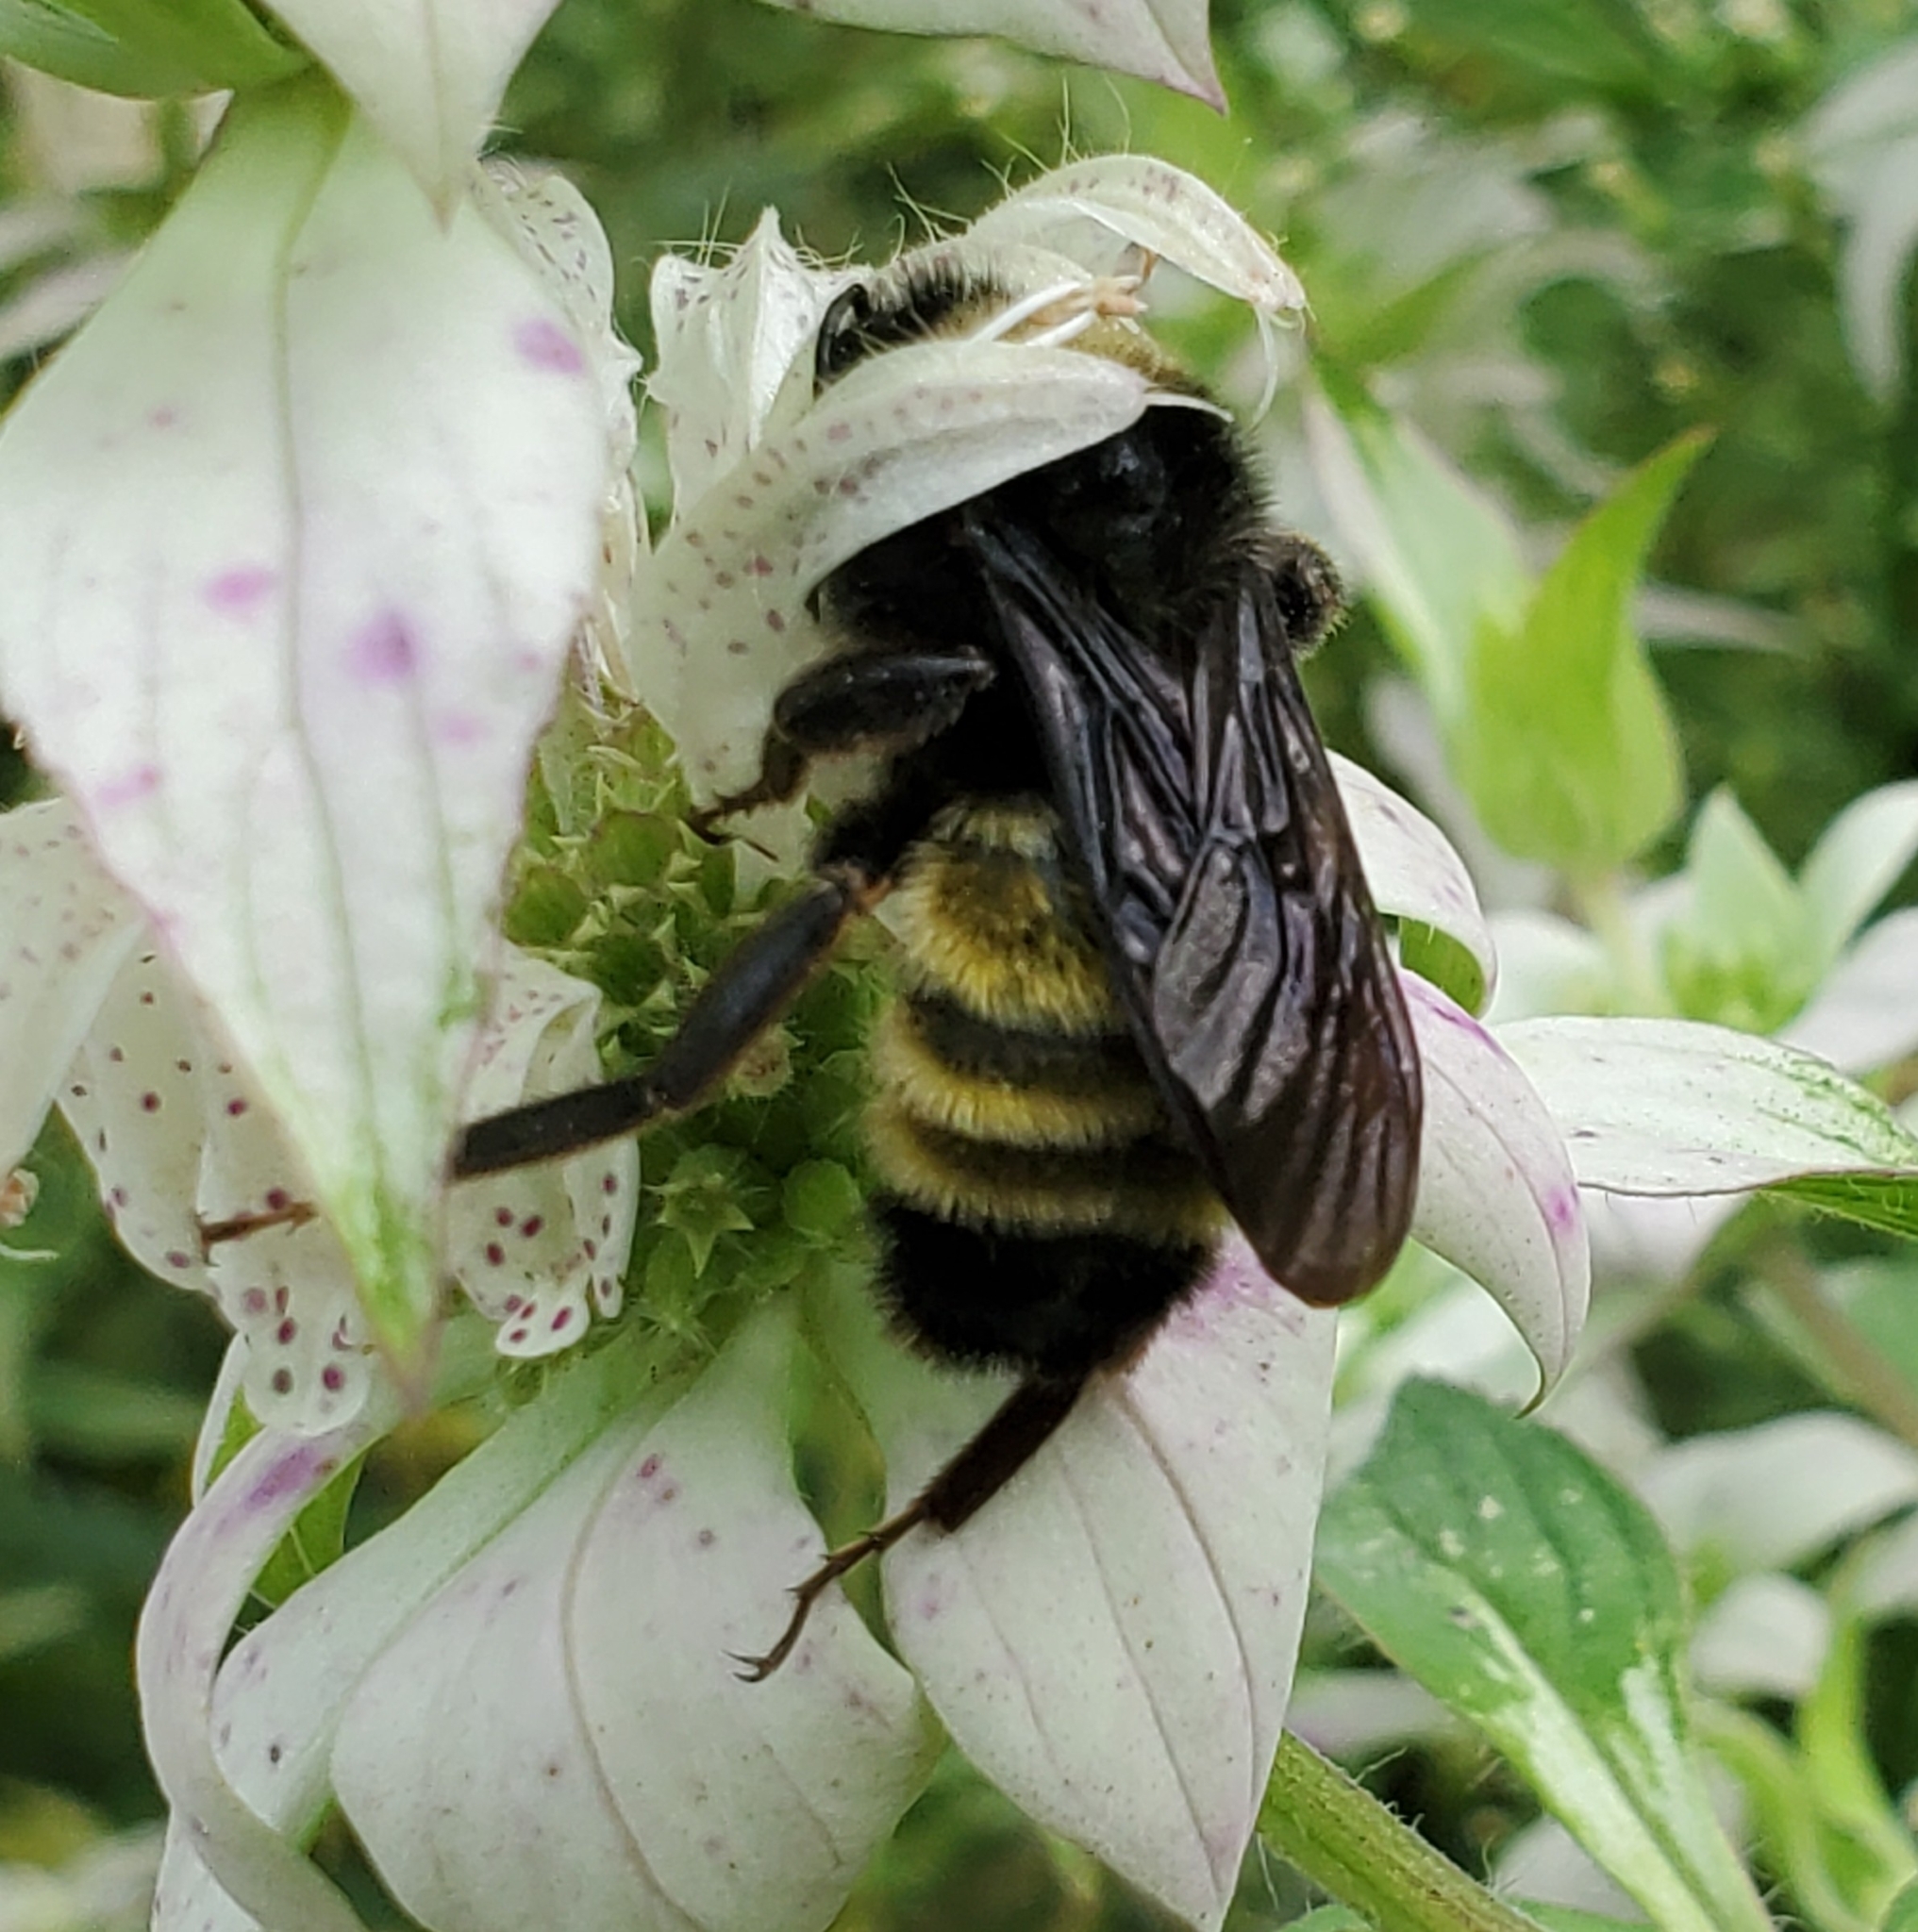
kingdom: Animalia
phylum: Arthropoda
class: Insecta
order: Hymenoptera
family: Apidae
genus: Bombus
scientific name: Bombus pensylvanicus
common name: Bumble bee
